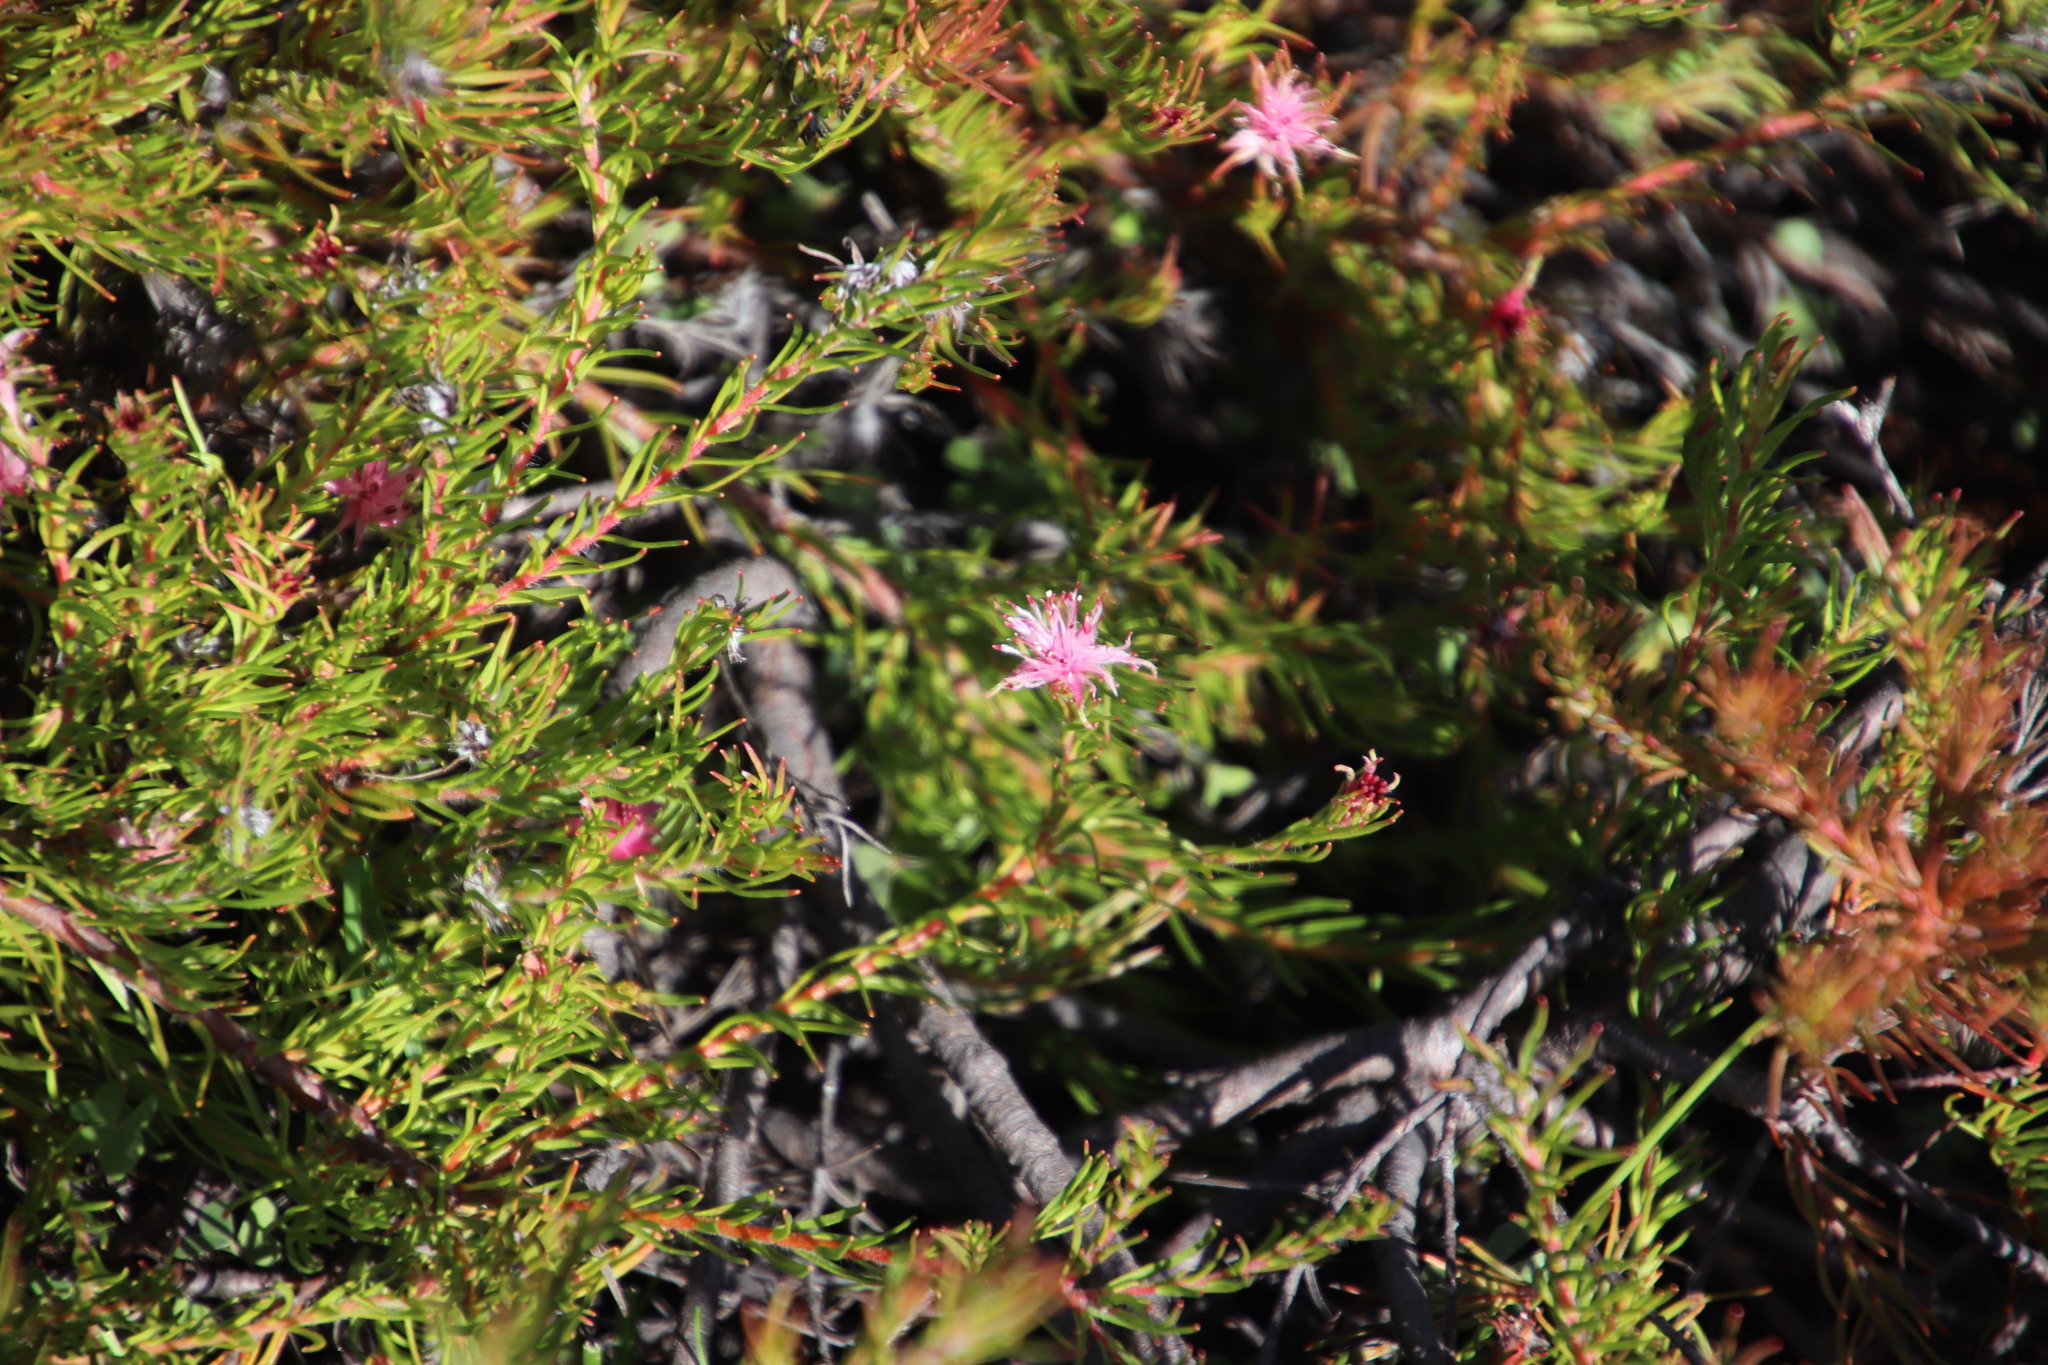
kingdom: Plantae
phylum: Tracheophyta
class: Magnoliopsida
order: Proteales
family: Proteaceae
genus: Diastella
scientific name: Diastella proteoides
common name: Flats silkypuff
